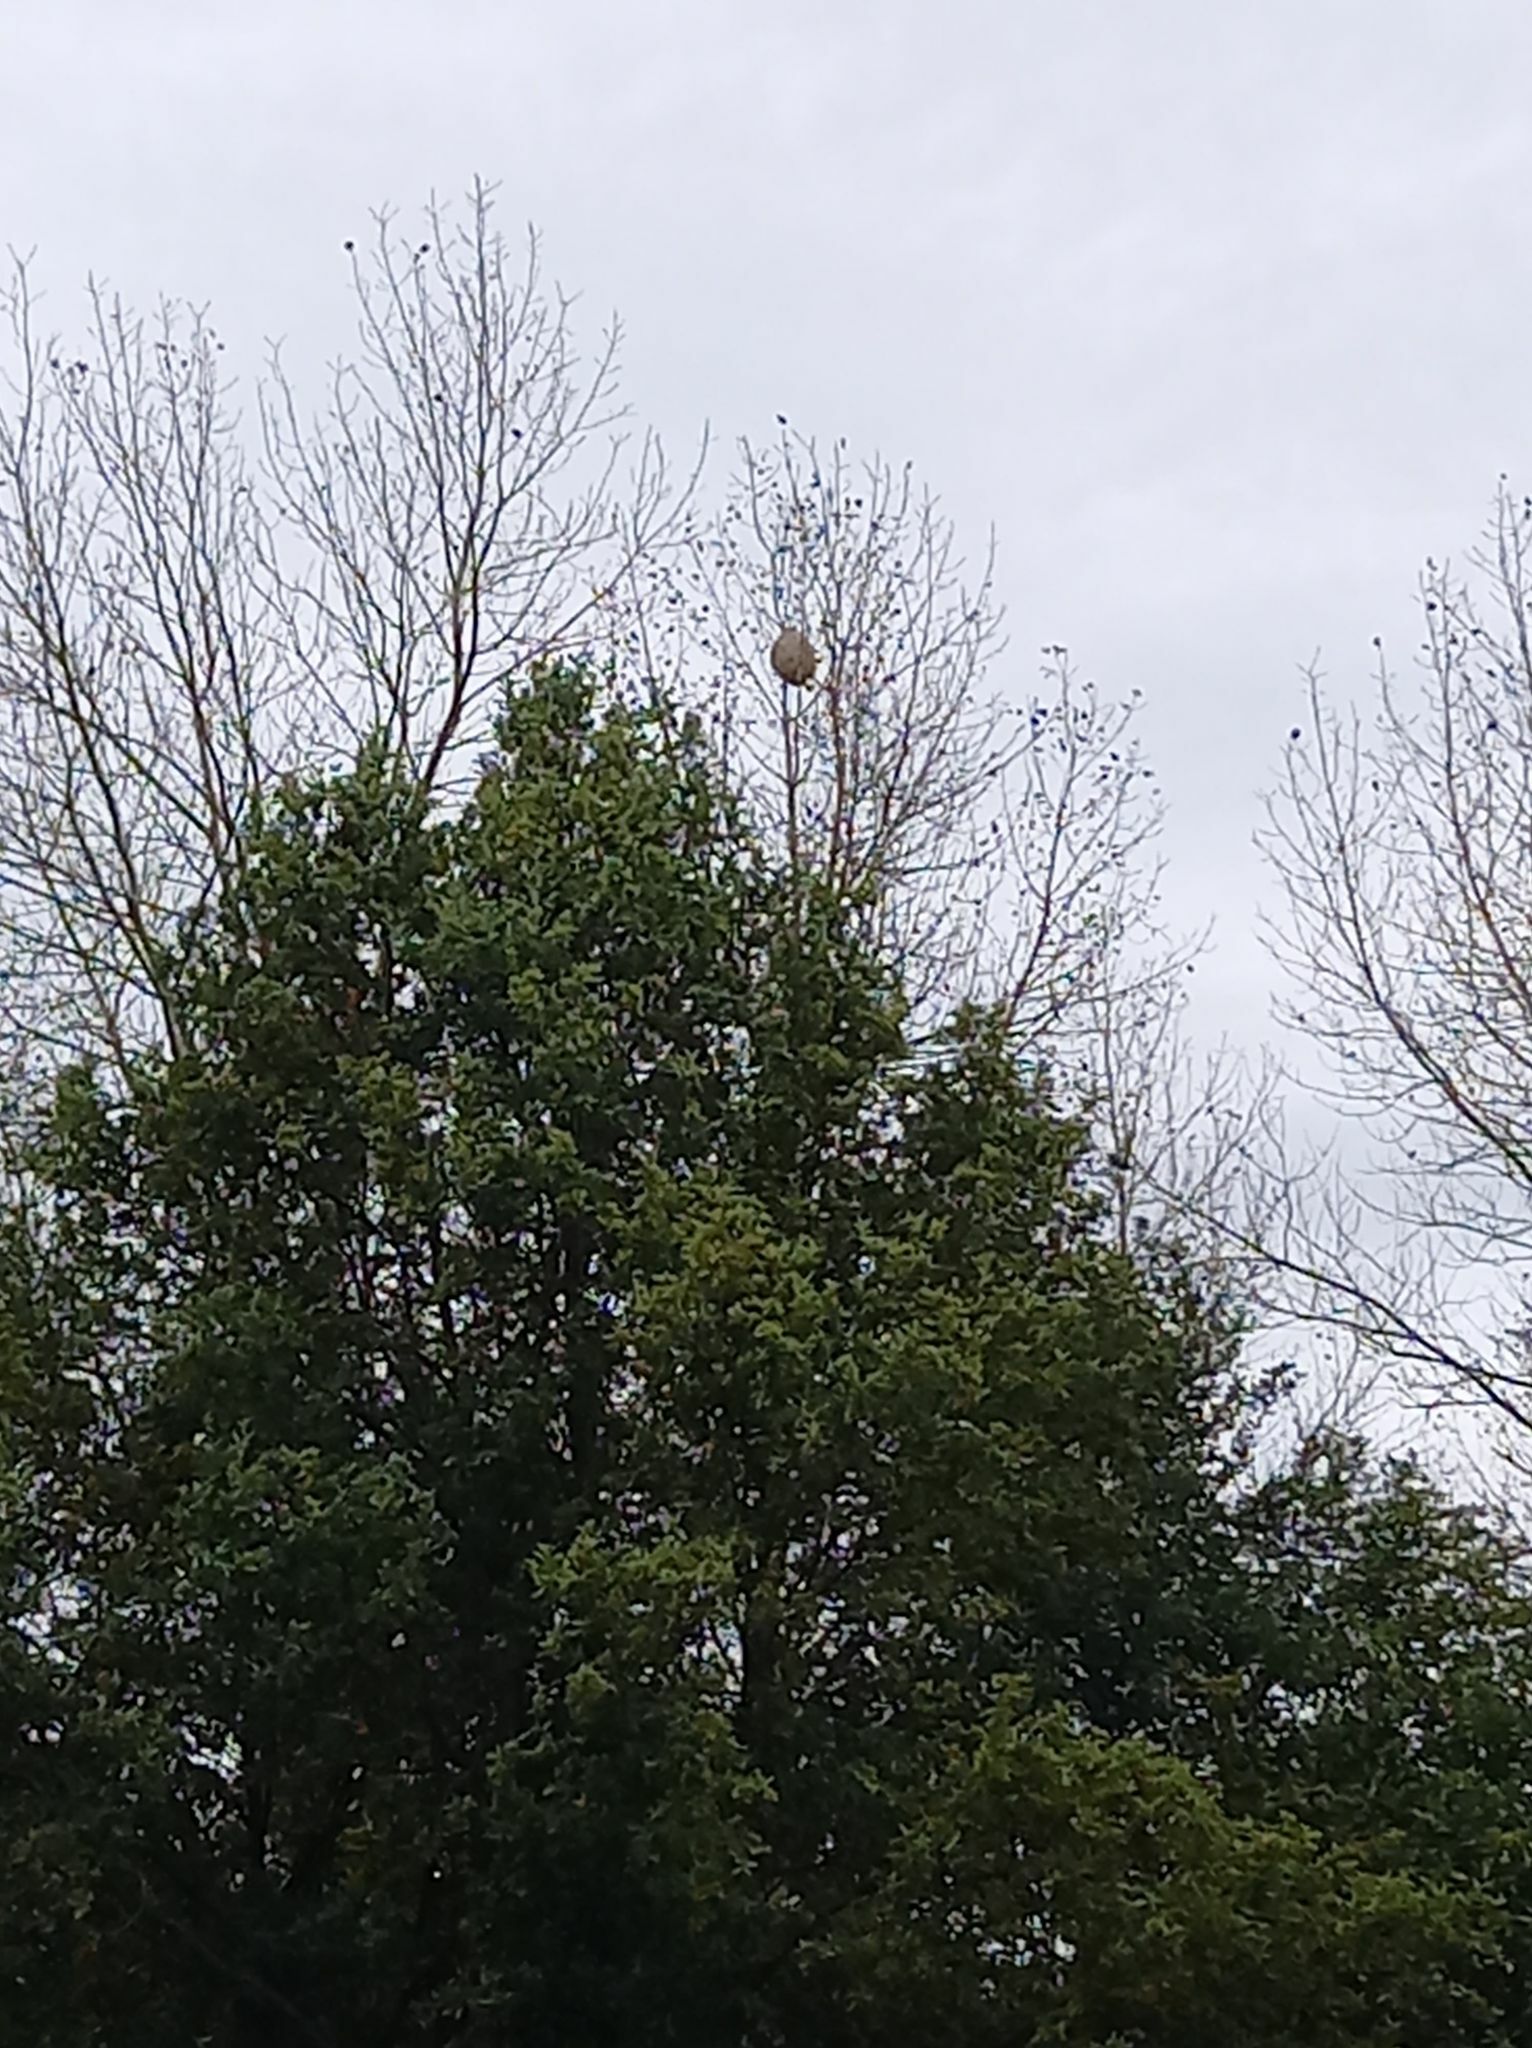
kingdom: Animalia
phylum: Arthropoda
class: Insecta
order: Hymenoptera
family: Vespidae
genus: Vespa
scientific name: Vespa velutina
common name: Asian hornet
